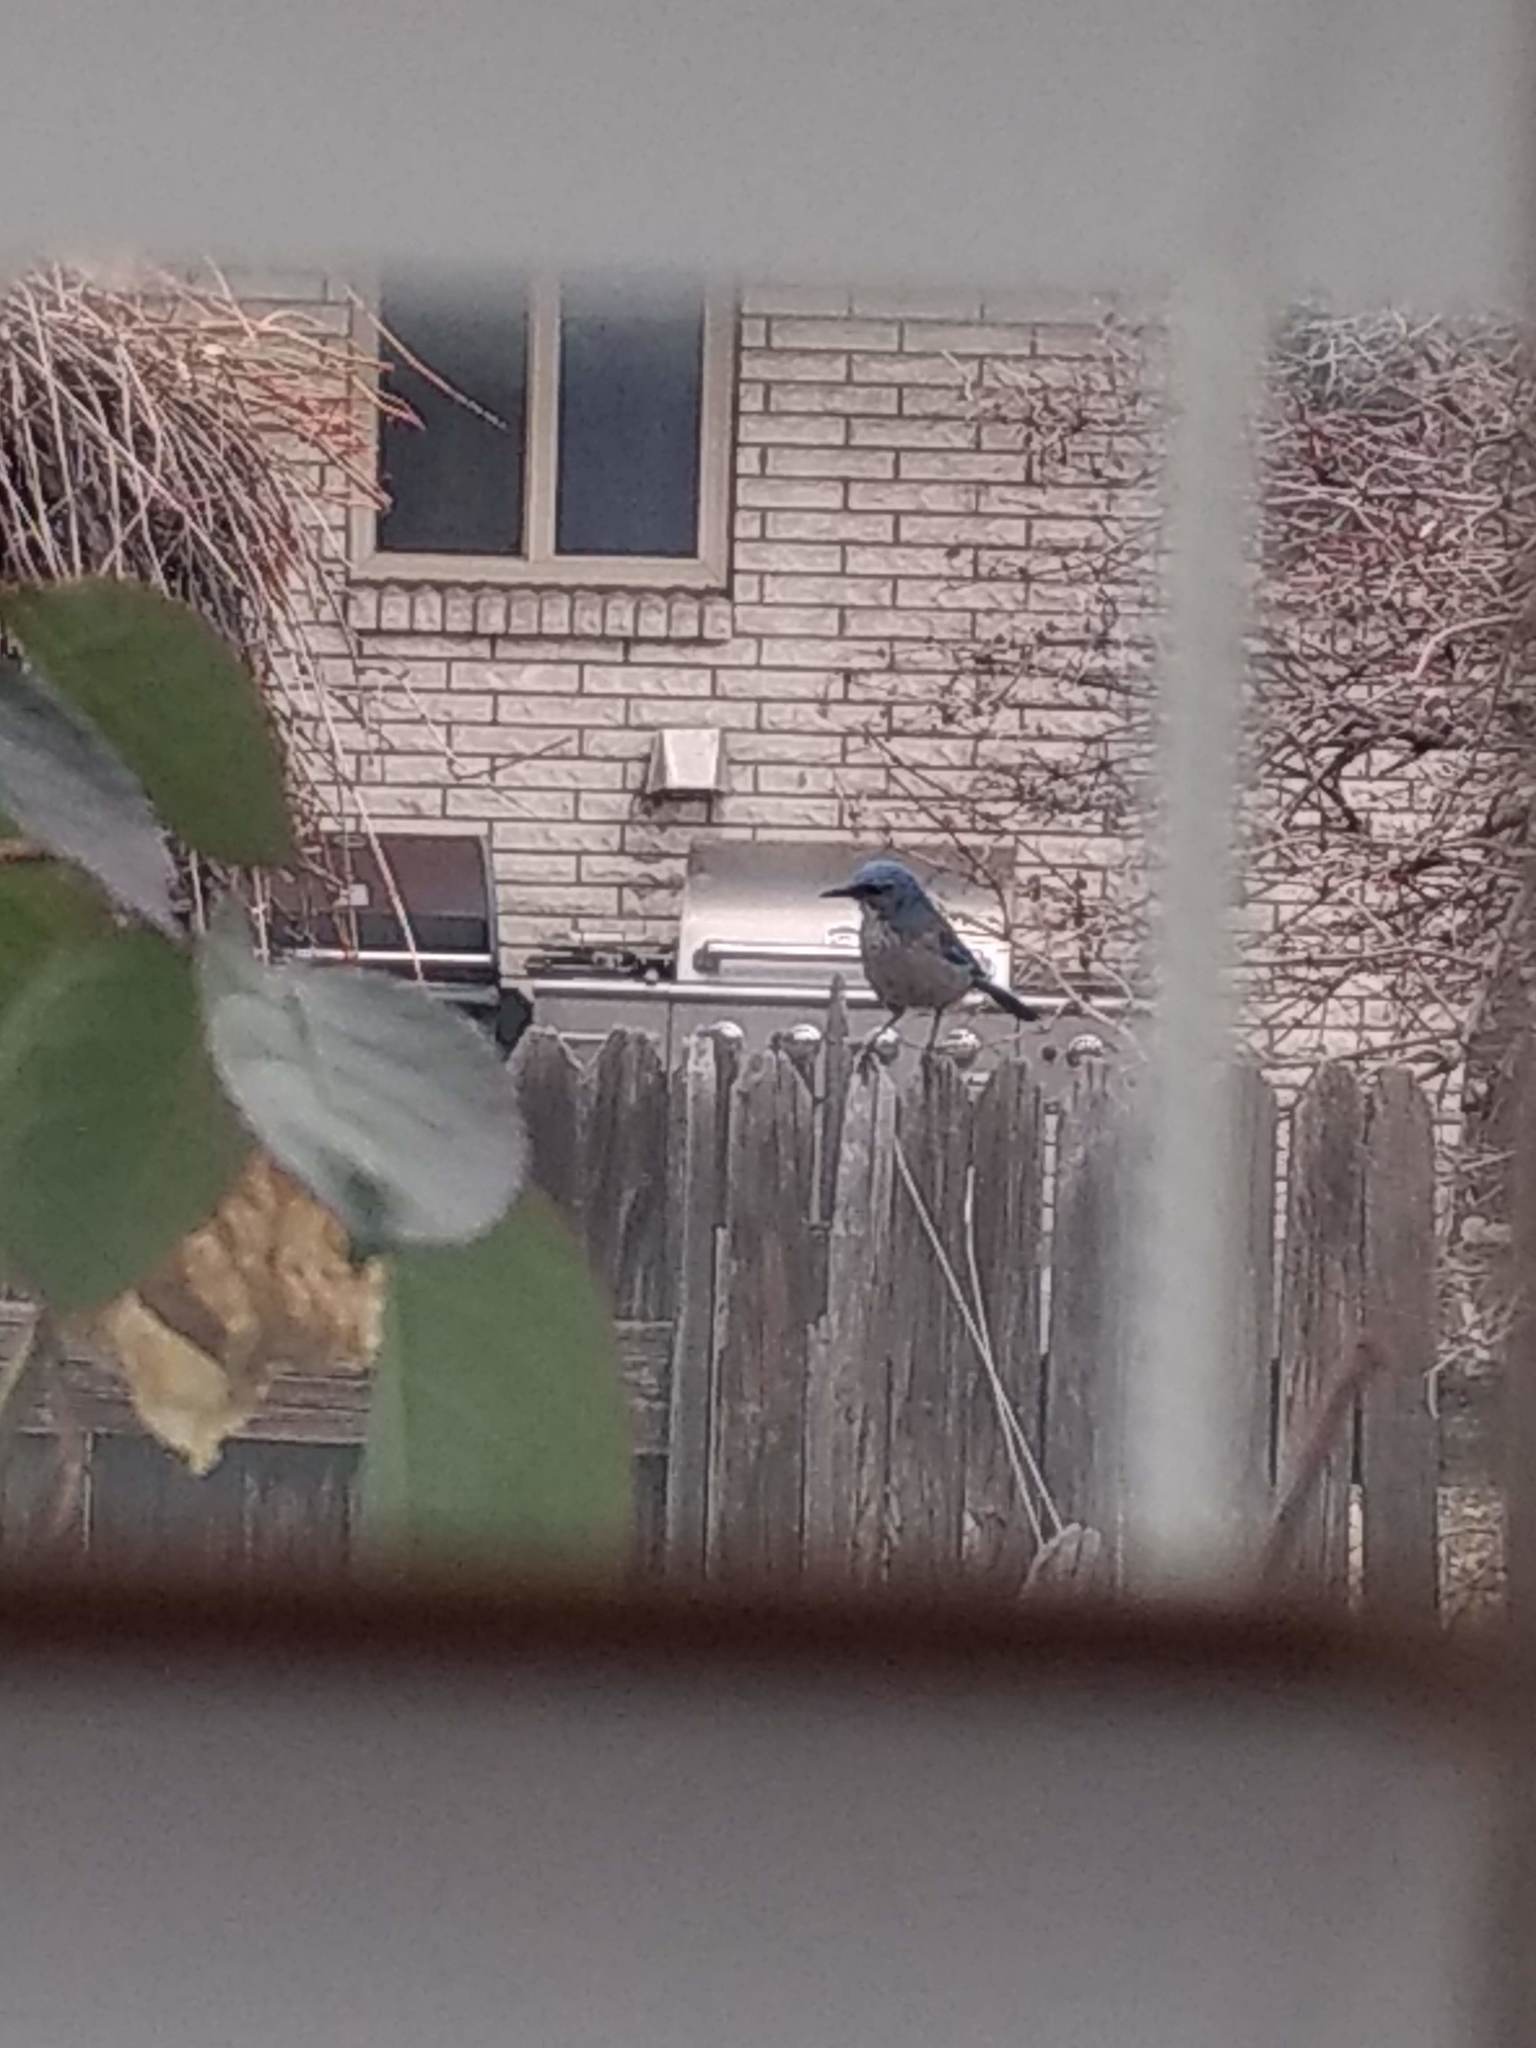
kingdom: Animalia
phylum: Chordata
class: Aves
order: Passeriformes
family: Corvidae
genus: Aphelocoma
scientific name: Aphelocoma woodhouseii
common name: Woodhouse's scrub-jay
